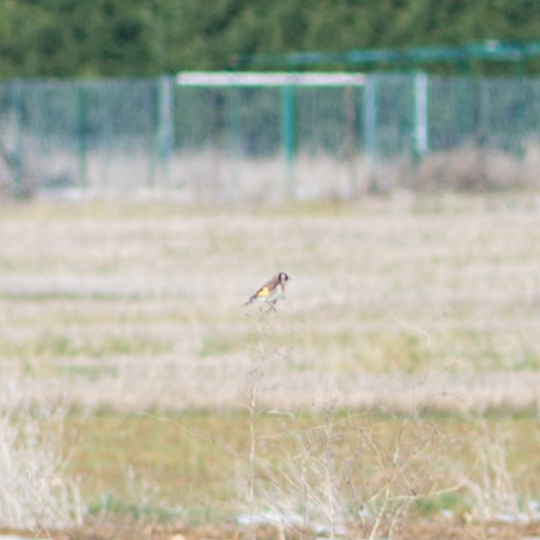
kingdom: Animalia
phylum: Chordata
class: Aves
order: Passeriformes
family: Fringillidae
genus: Carduelis
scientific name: Carduelis carduelis
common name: European goldfinch
